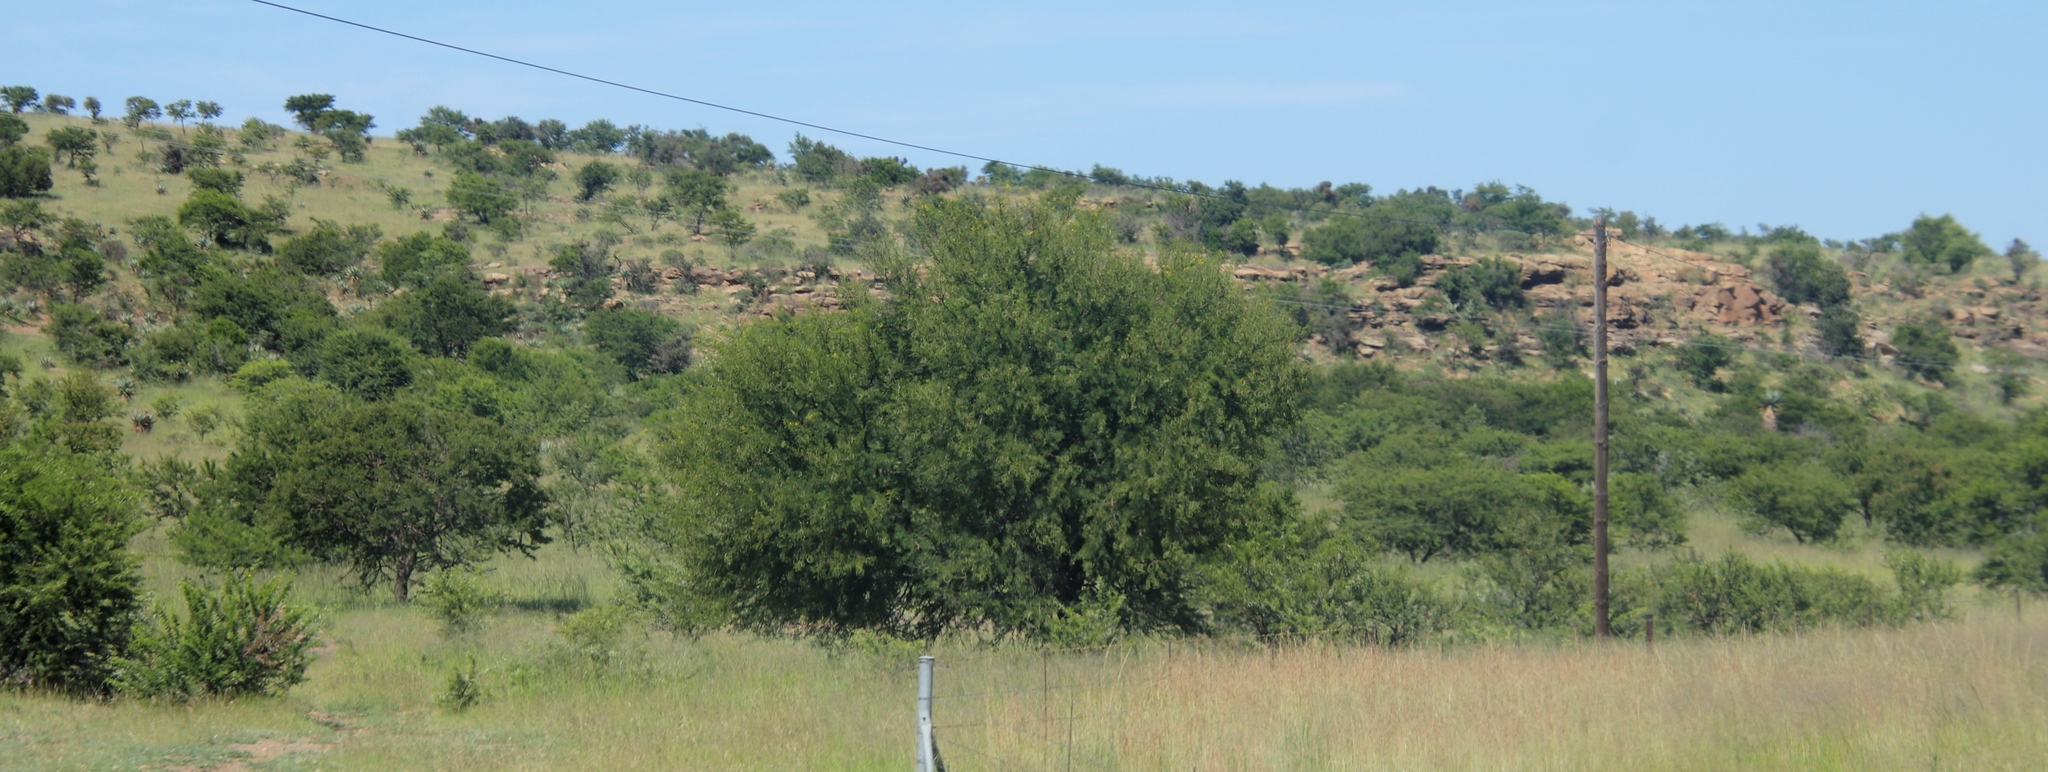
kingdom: Plantae
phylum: Tracheophyta
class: Magnoliopsida
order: Fabales
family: Fabaceae
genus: Vachellia
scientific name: Vachellia karroo
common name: Sweet thorn
